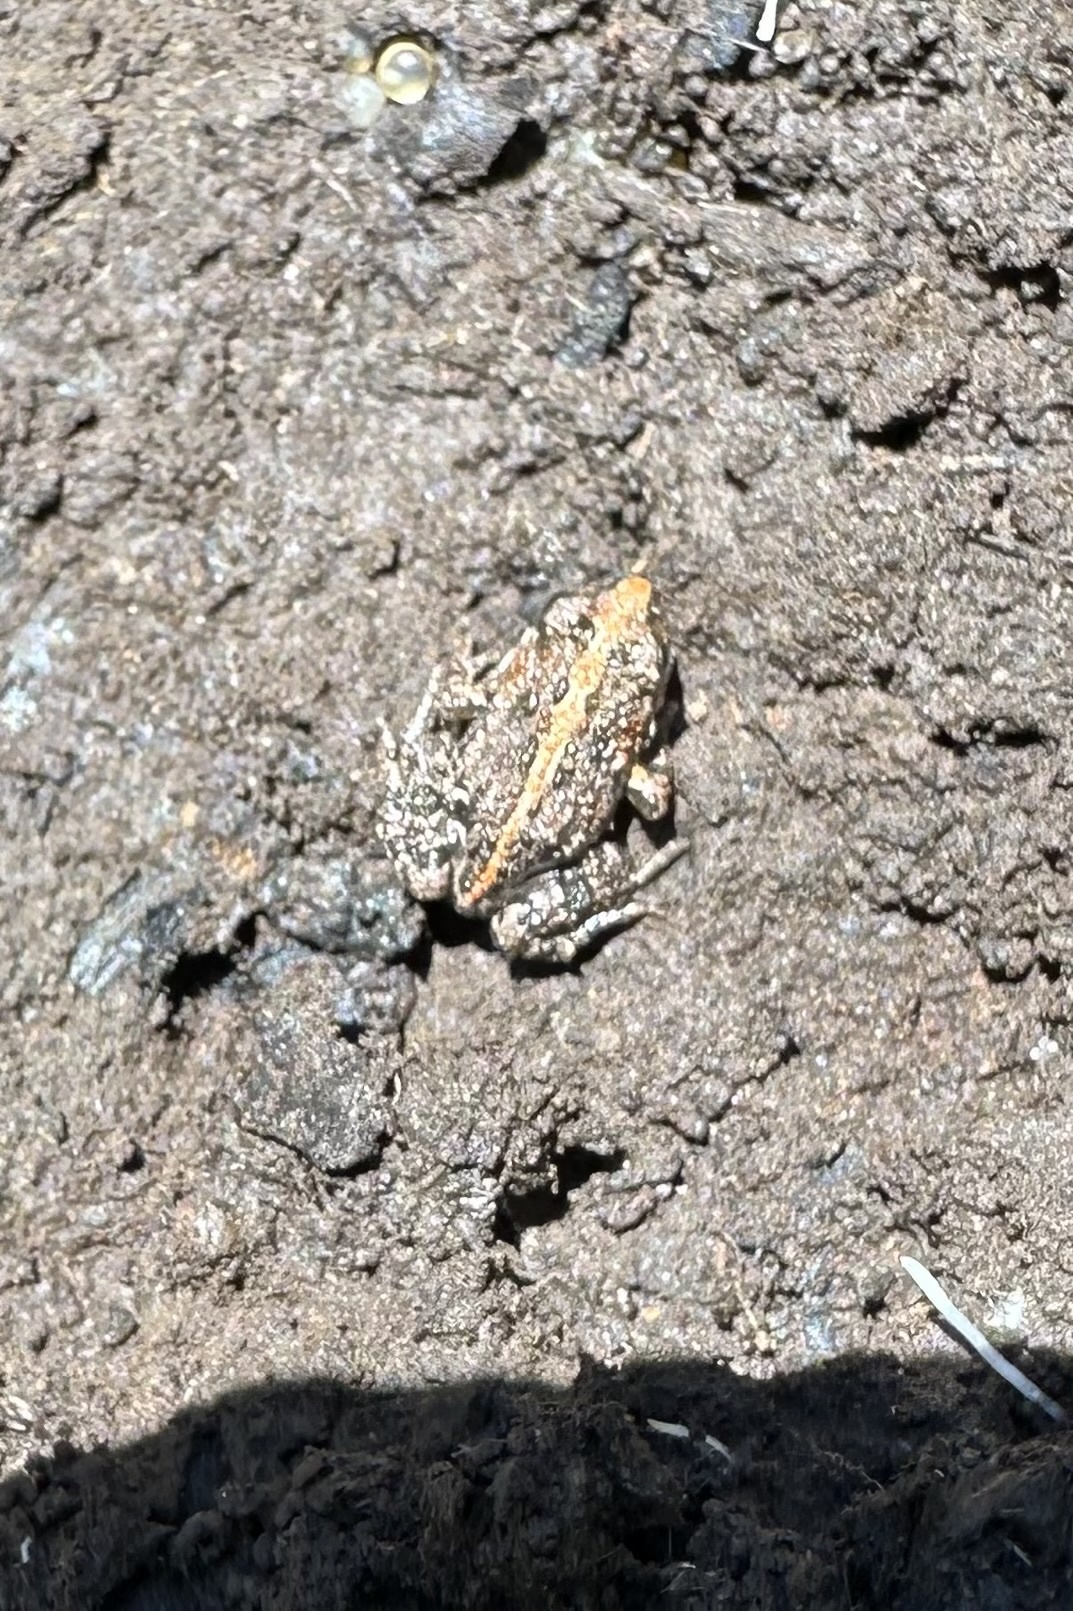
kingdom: Animalia
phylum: Chordata
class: Amphibia
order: Anura
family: Leptodactylidae
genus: Pleurodema
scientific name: Pleurodema thaul
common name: Chile four-eyed frog
